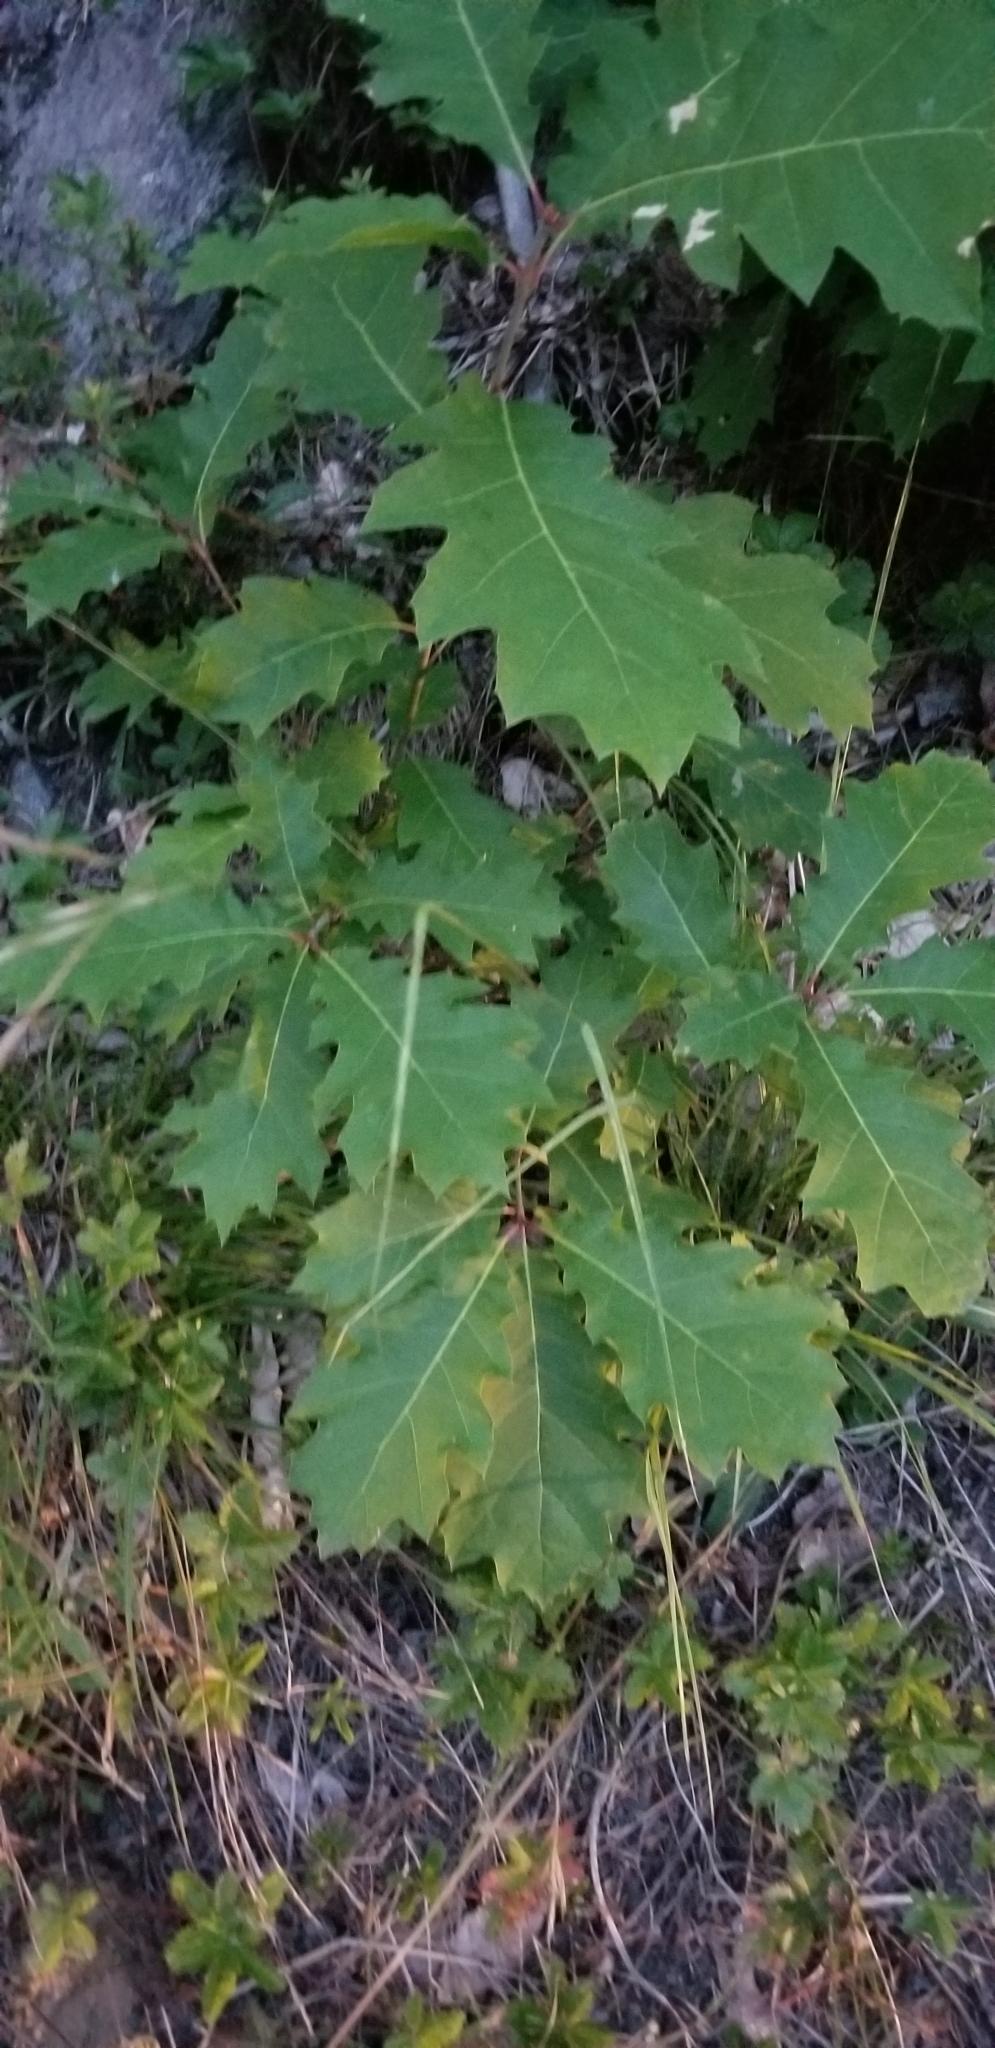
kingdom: Plantae
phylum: Tracheophyta
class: Magnoliopsida
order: Fagales
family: Fagaceae
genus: Quercus
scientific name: Quercus rubra
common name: Red oak
